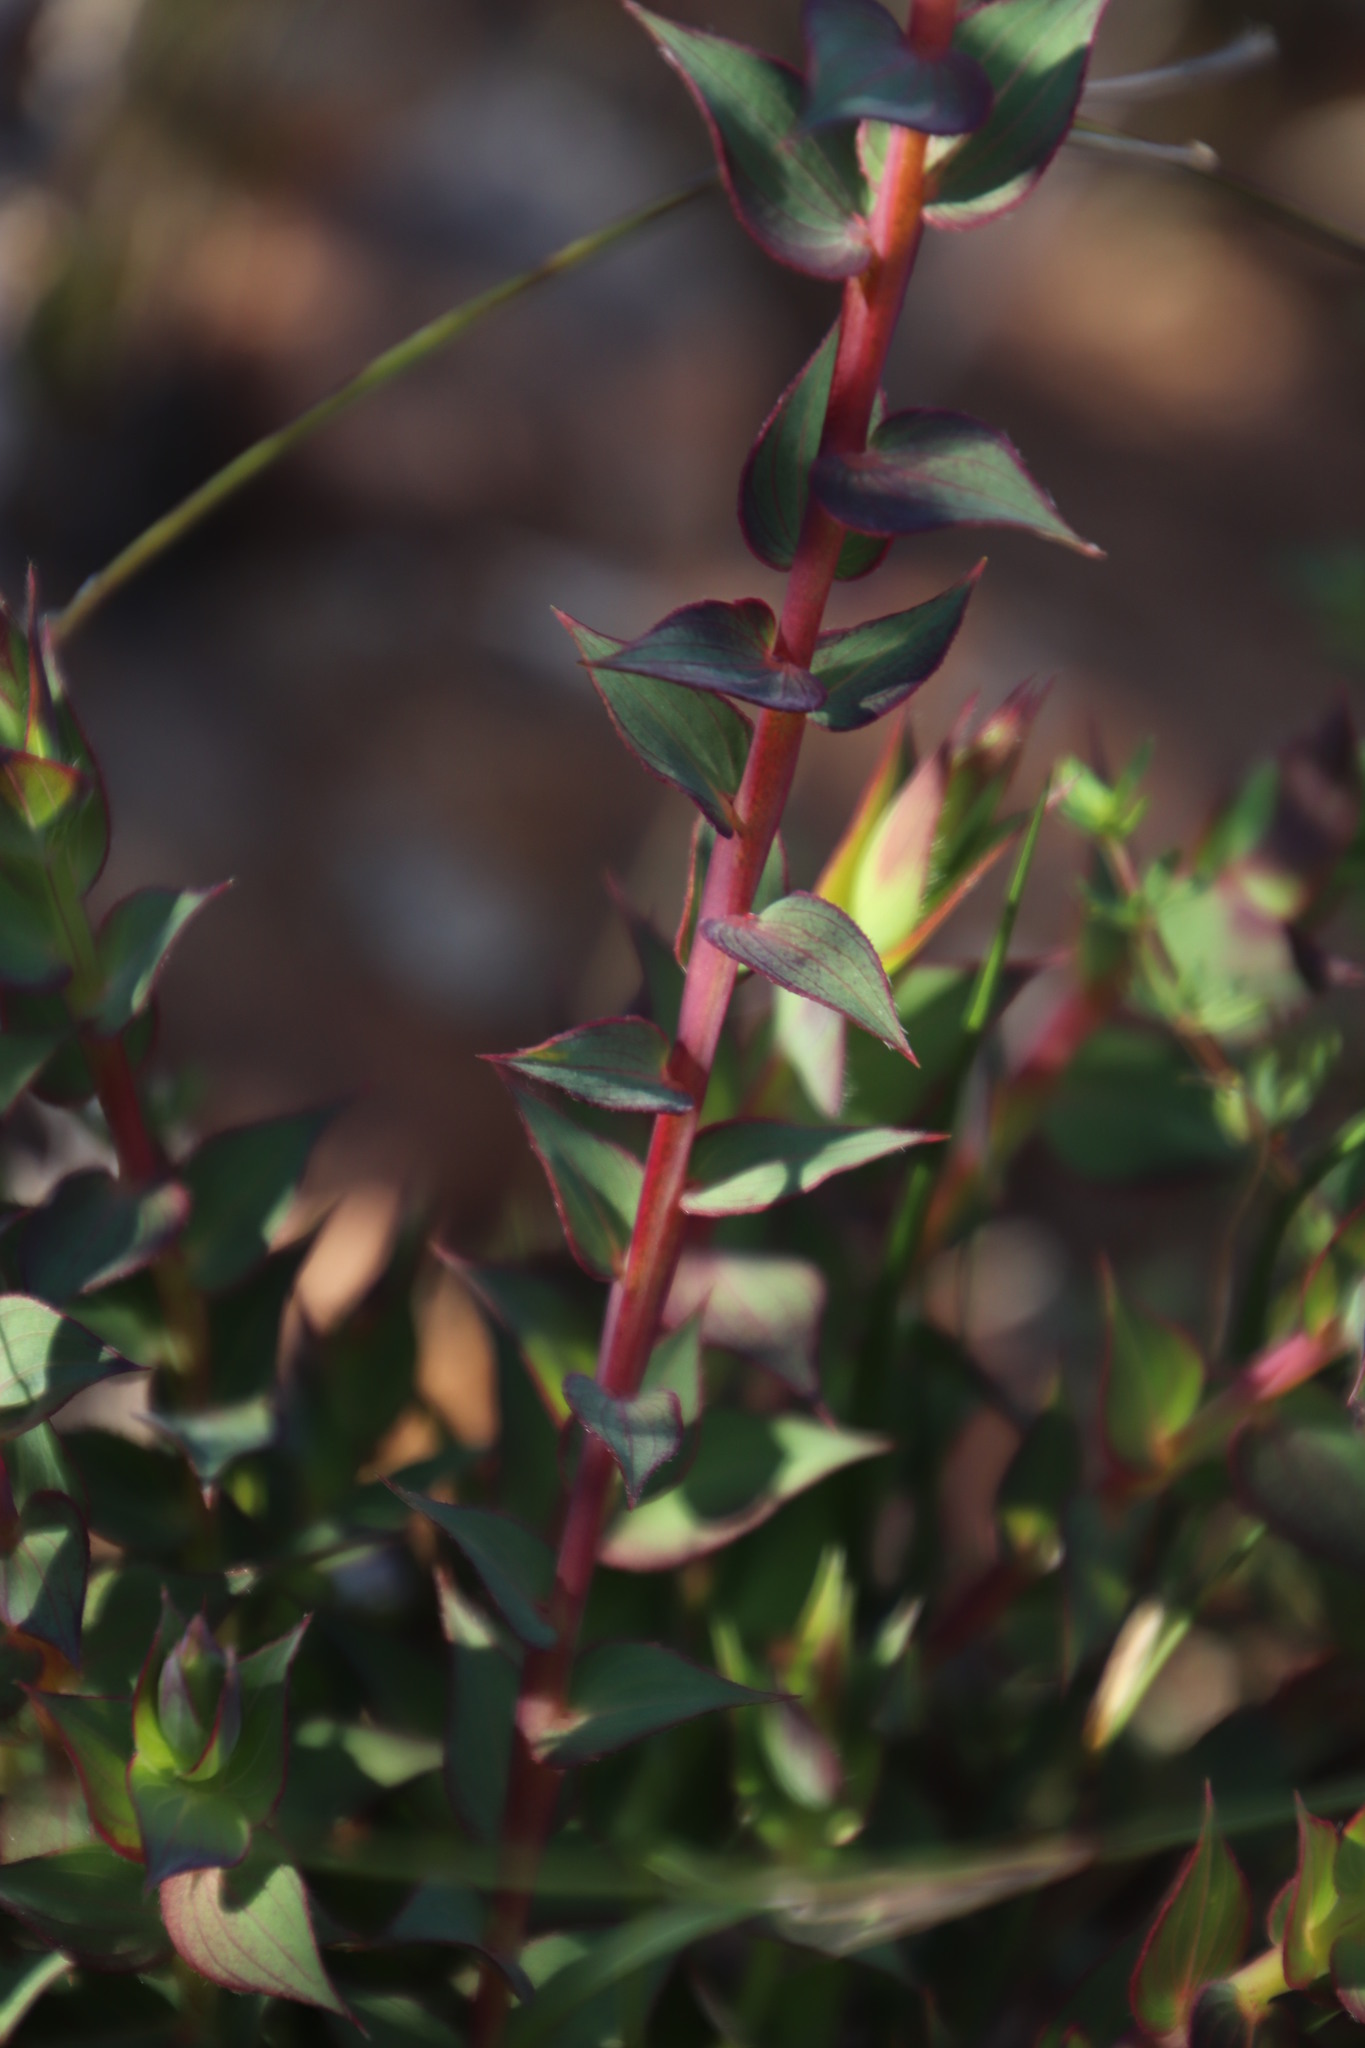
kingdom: Plantae
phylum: Tracheophyta
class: Magnoliopsida
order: Fabales
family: Fabaceae
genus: Aspalathus
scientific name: Aspalathus crenata
